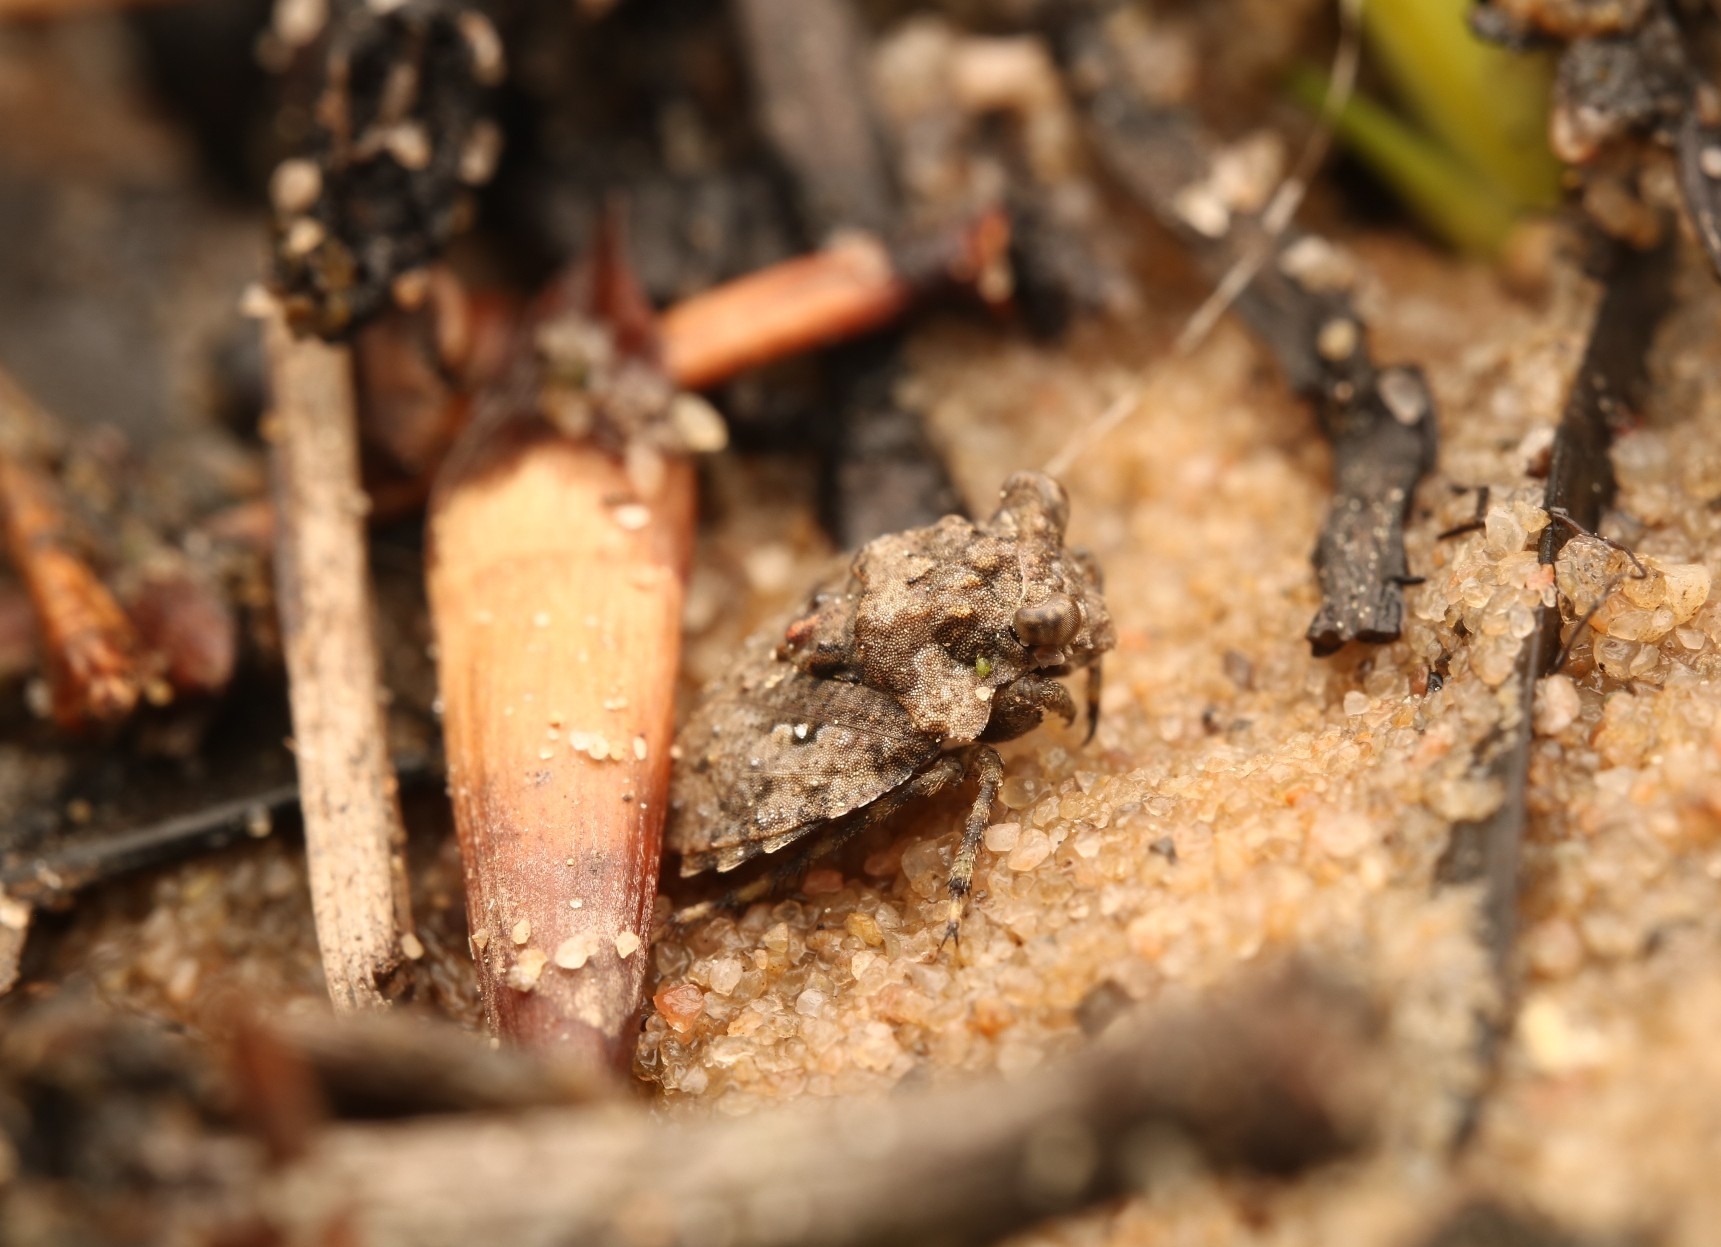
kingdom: Animalia
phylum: Arthropoda
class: Insecta
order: Hemiptera
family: Gelastocoridae
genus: Gelastocoris
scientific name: Gelastocoris oculatus
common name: Toad bug
